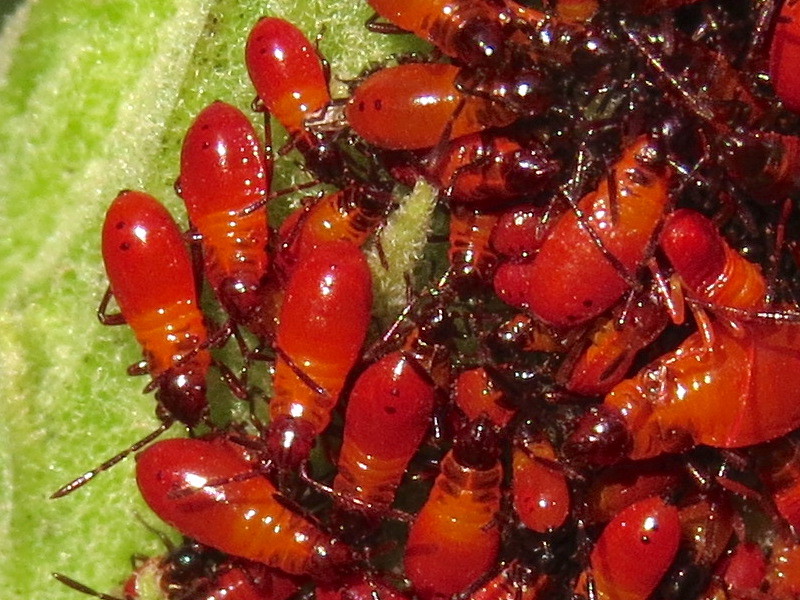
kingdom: Animalia
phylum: Arthropoda
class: Insecta
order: Hemiptera
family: Lygaeidae
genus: Oncopeltus
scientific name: Oncopeltus fasciatus
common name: Large milkweed bug
